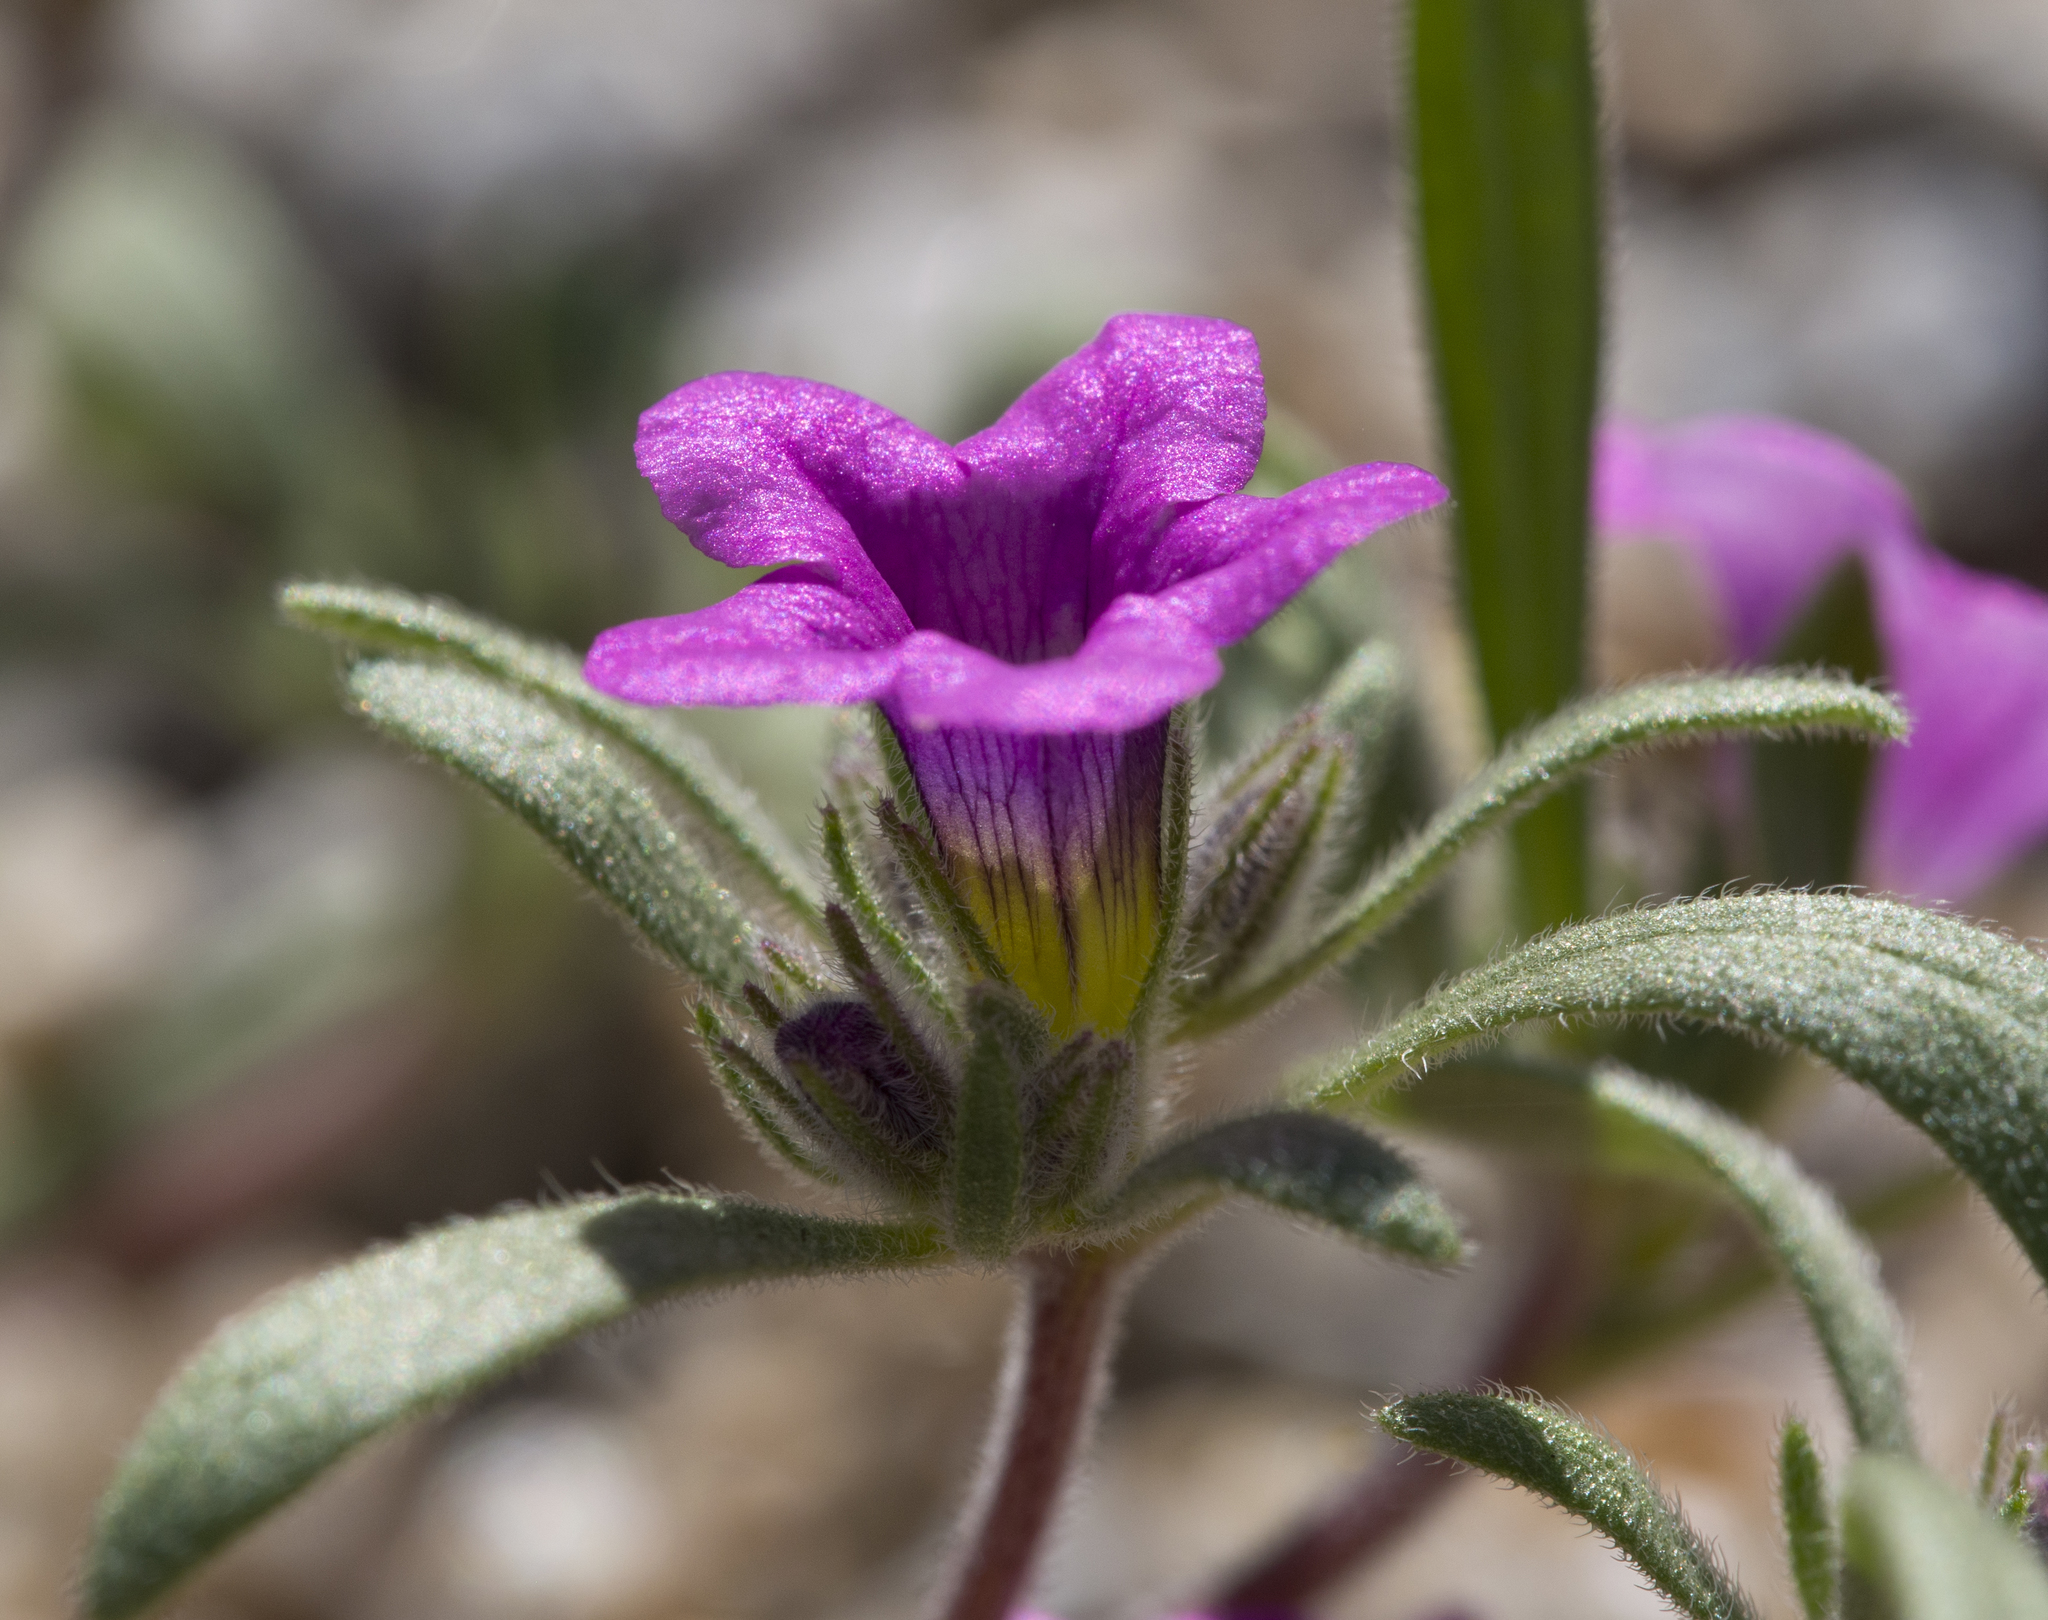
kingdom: Plantae
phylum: Tracheophyta
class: Magnoliopsida
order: Boraginales
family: Namaceae
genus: Nama
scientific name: Nama demissa
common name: Leafy nama
